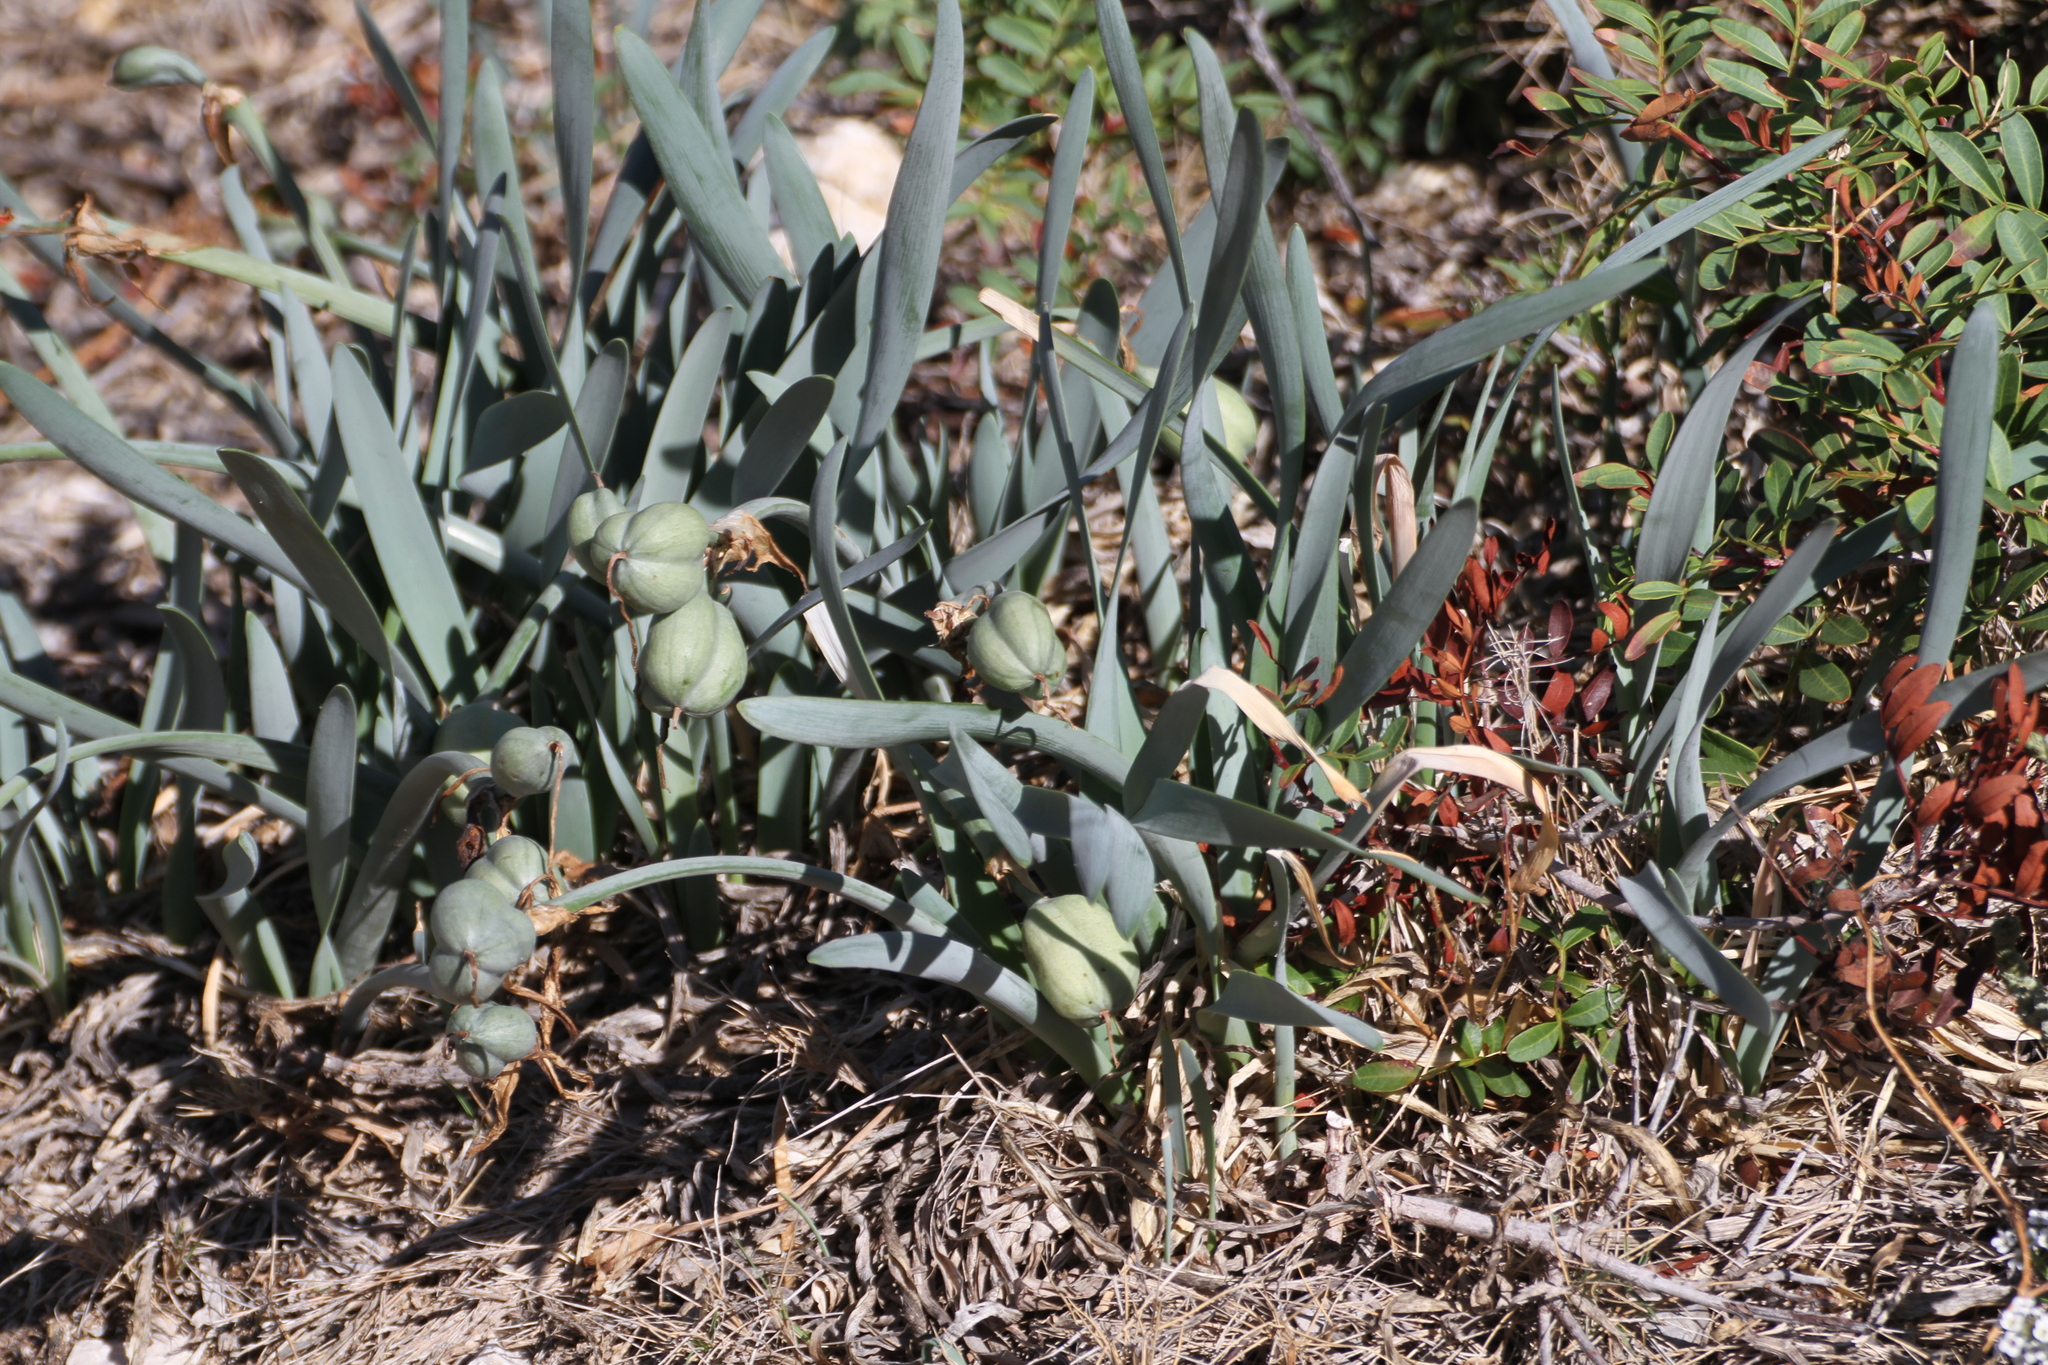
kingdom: Plantae
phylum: Tracheophyta
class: Liliopsida
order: Asparagales
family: Amaryllidaceae
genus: Pancratium
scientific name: Pancratium maritimum
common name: Sea-daffodil
